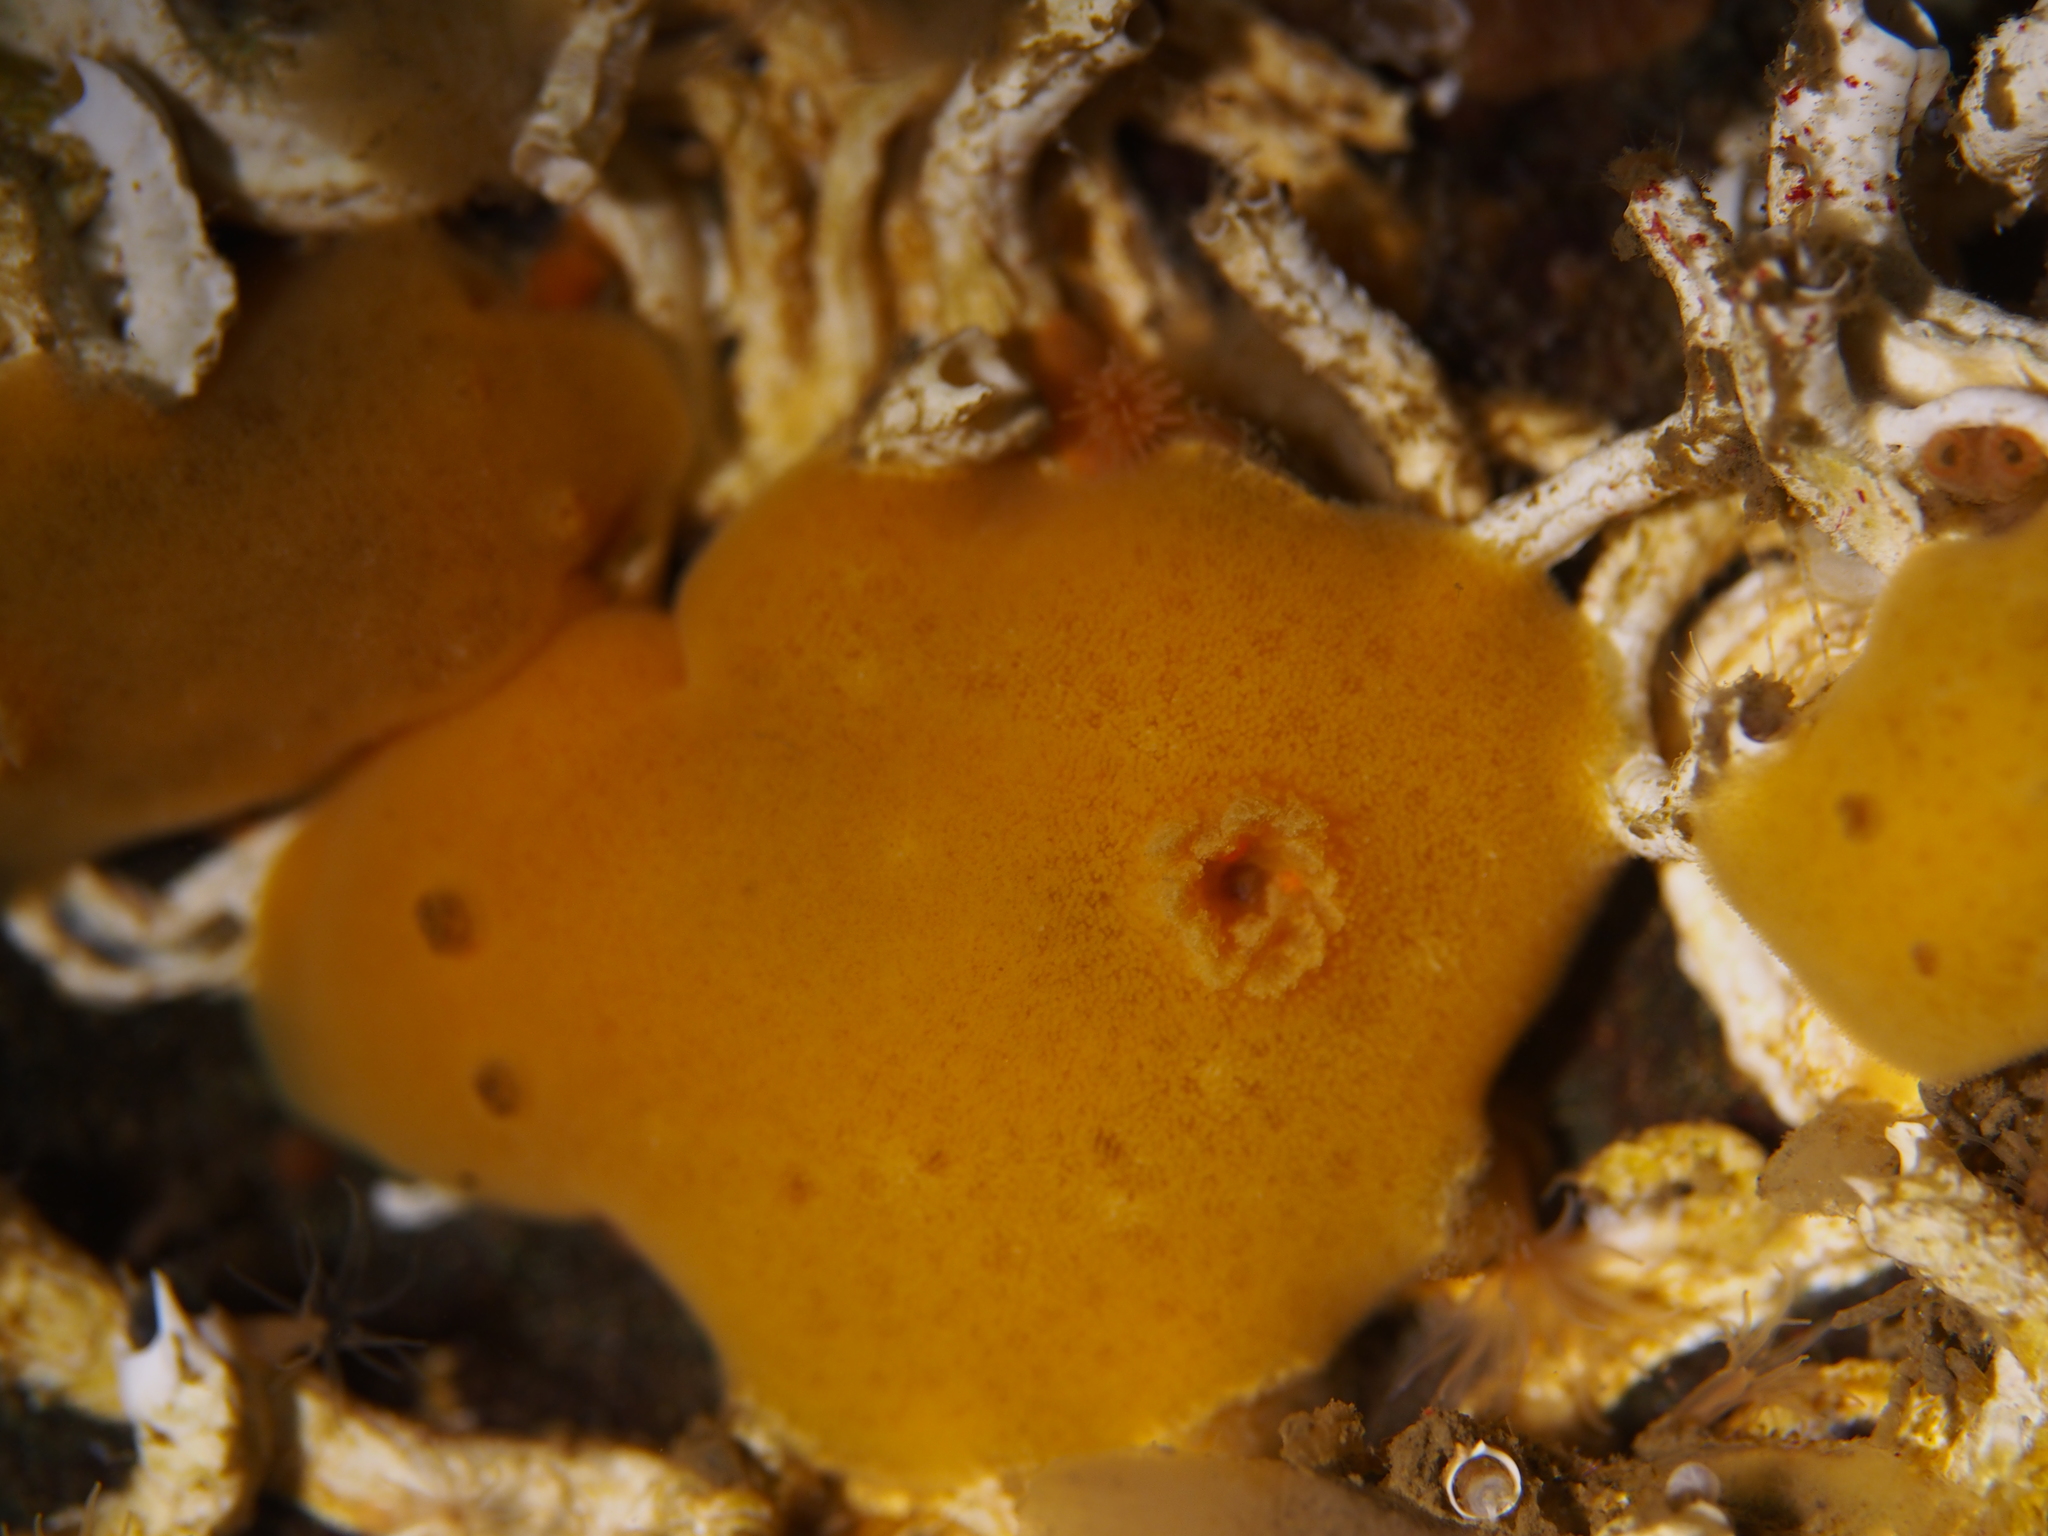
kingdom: Animalia
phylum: Mollusca
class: Gastropoda
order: Nudibranchia
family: Discodorididae
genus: Jorunna
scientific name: Jorunna tomentosa
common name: Grey sea slug
